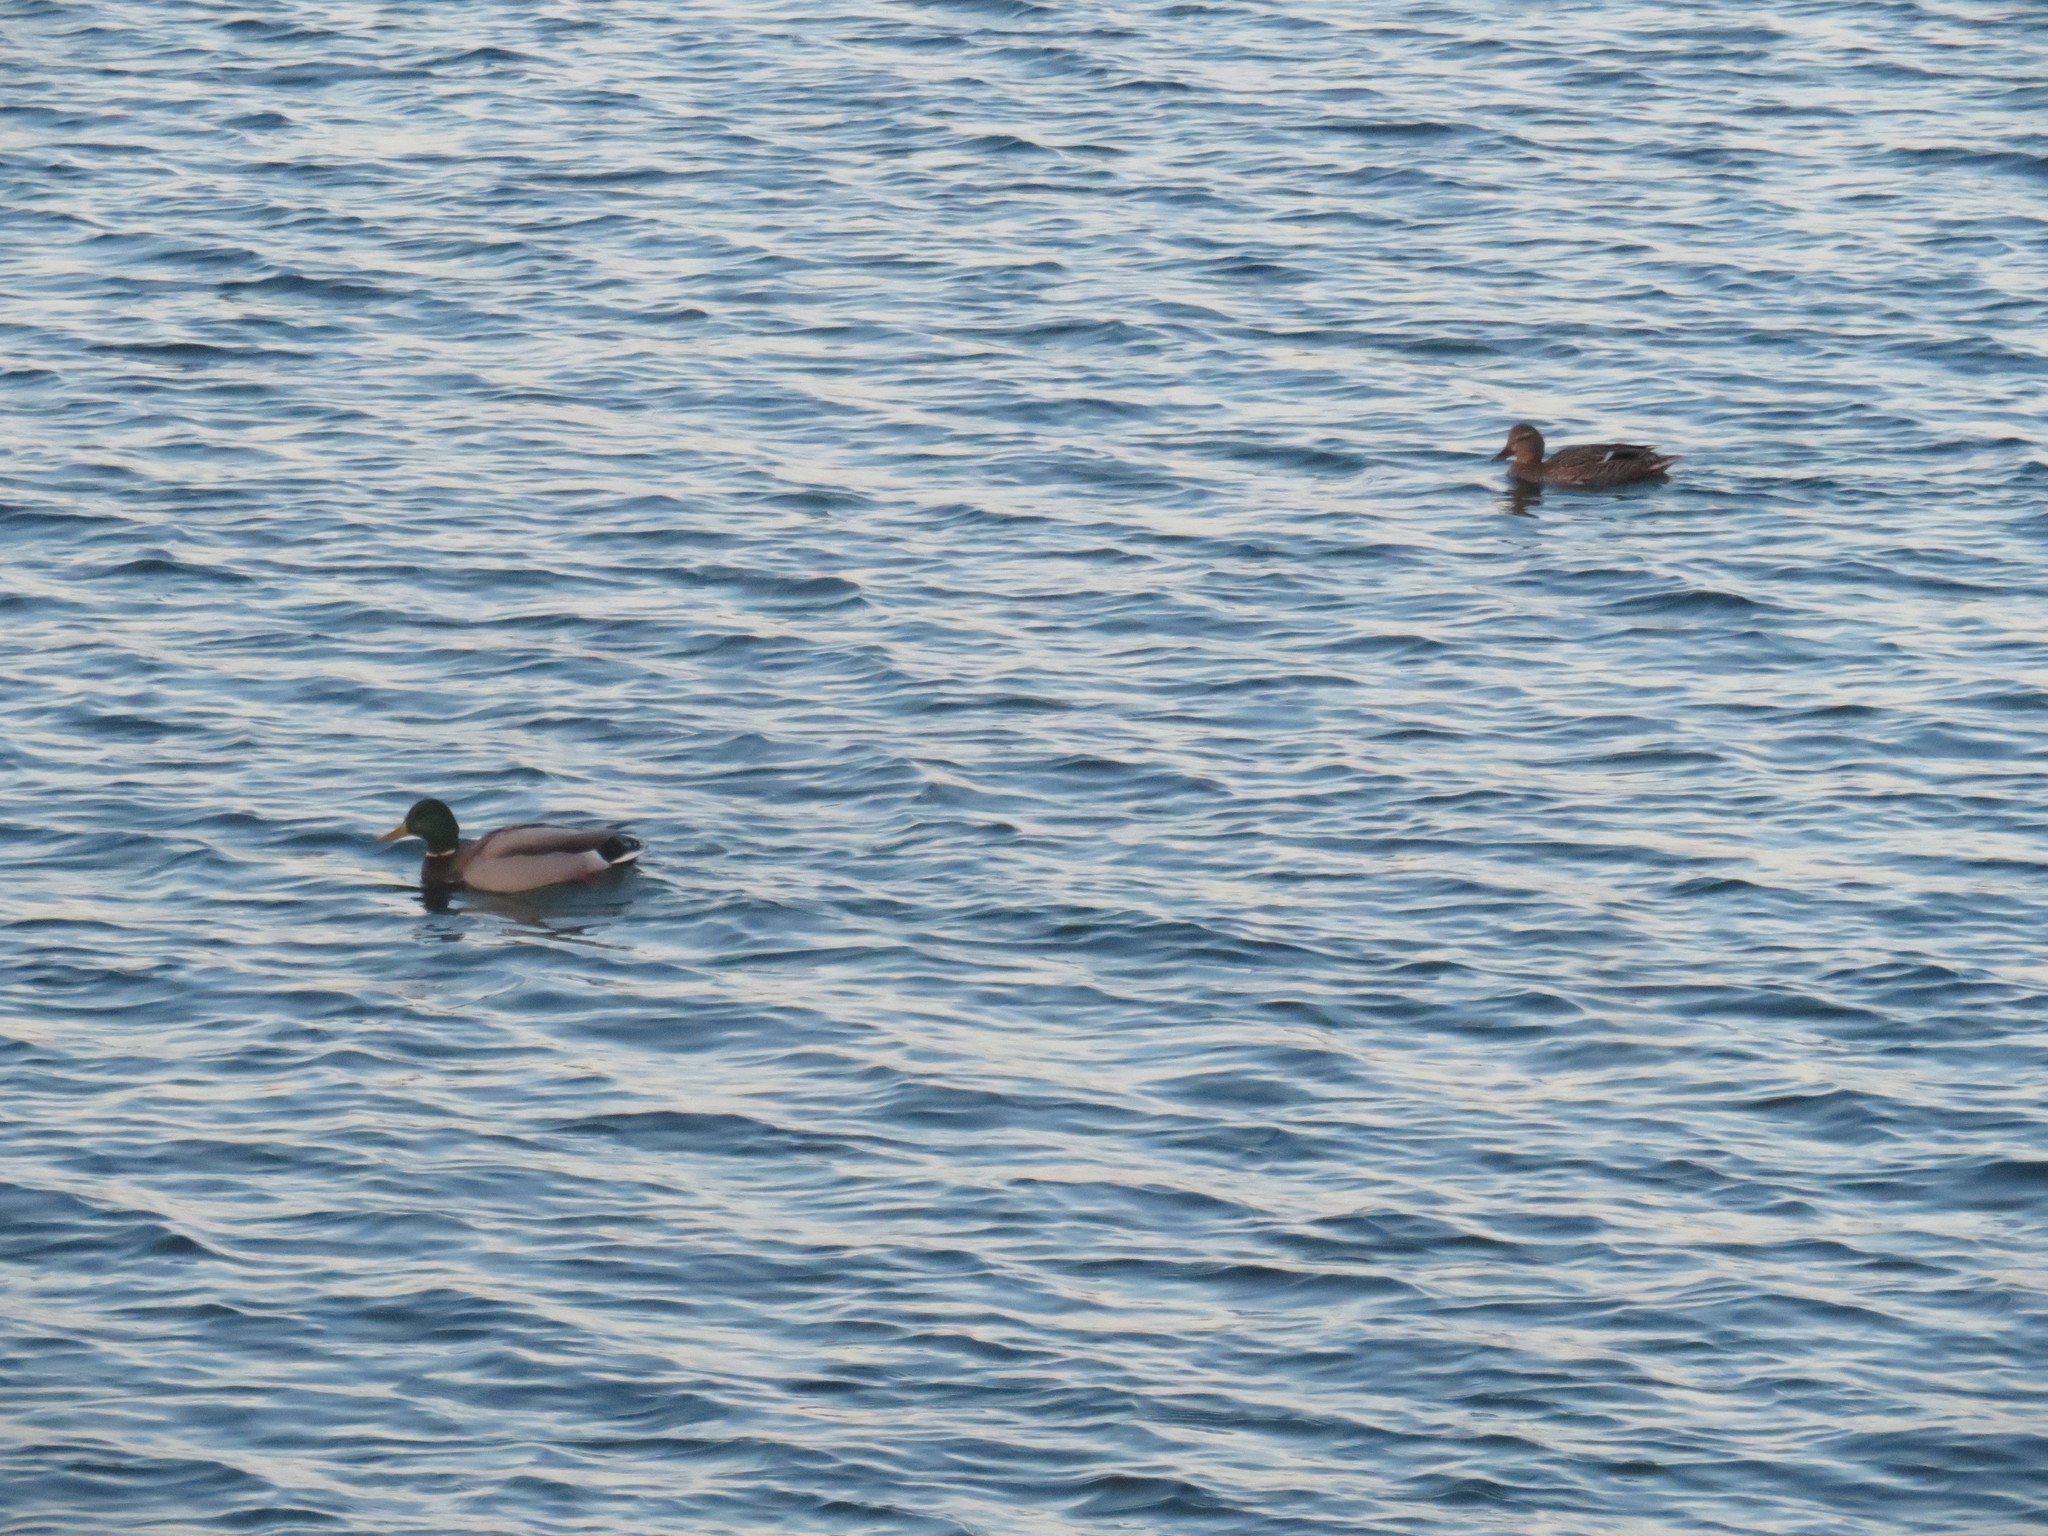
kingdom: Animalia
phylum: Chordata
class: Aves
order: Anseriformes
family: Anatidae
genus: Anas
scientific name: Anas platyrhynchos
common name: Mallard
